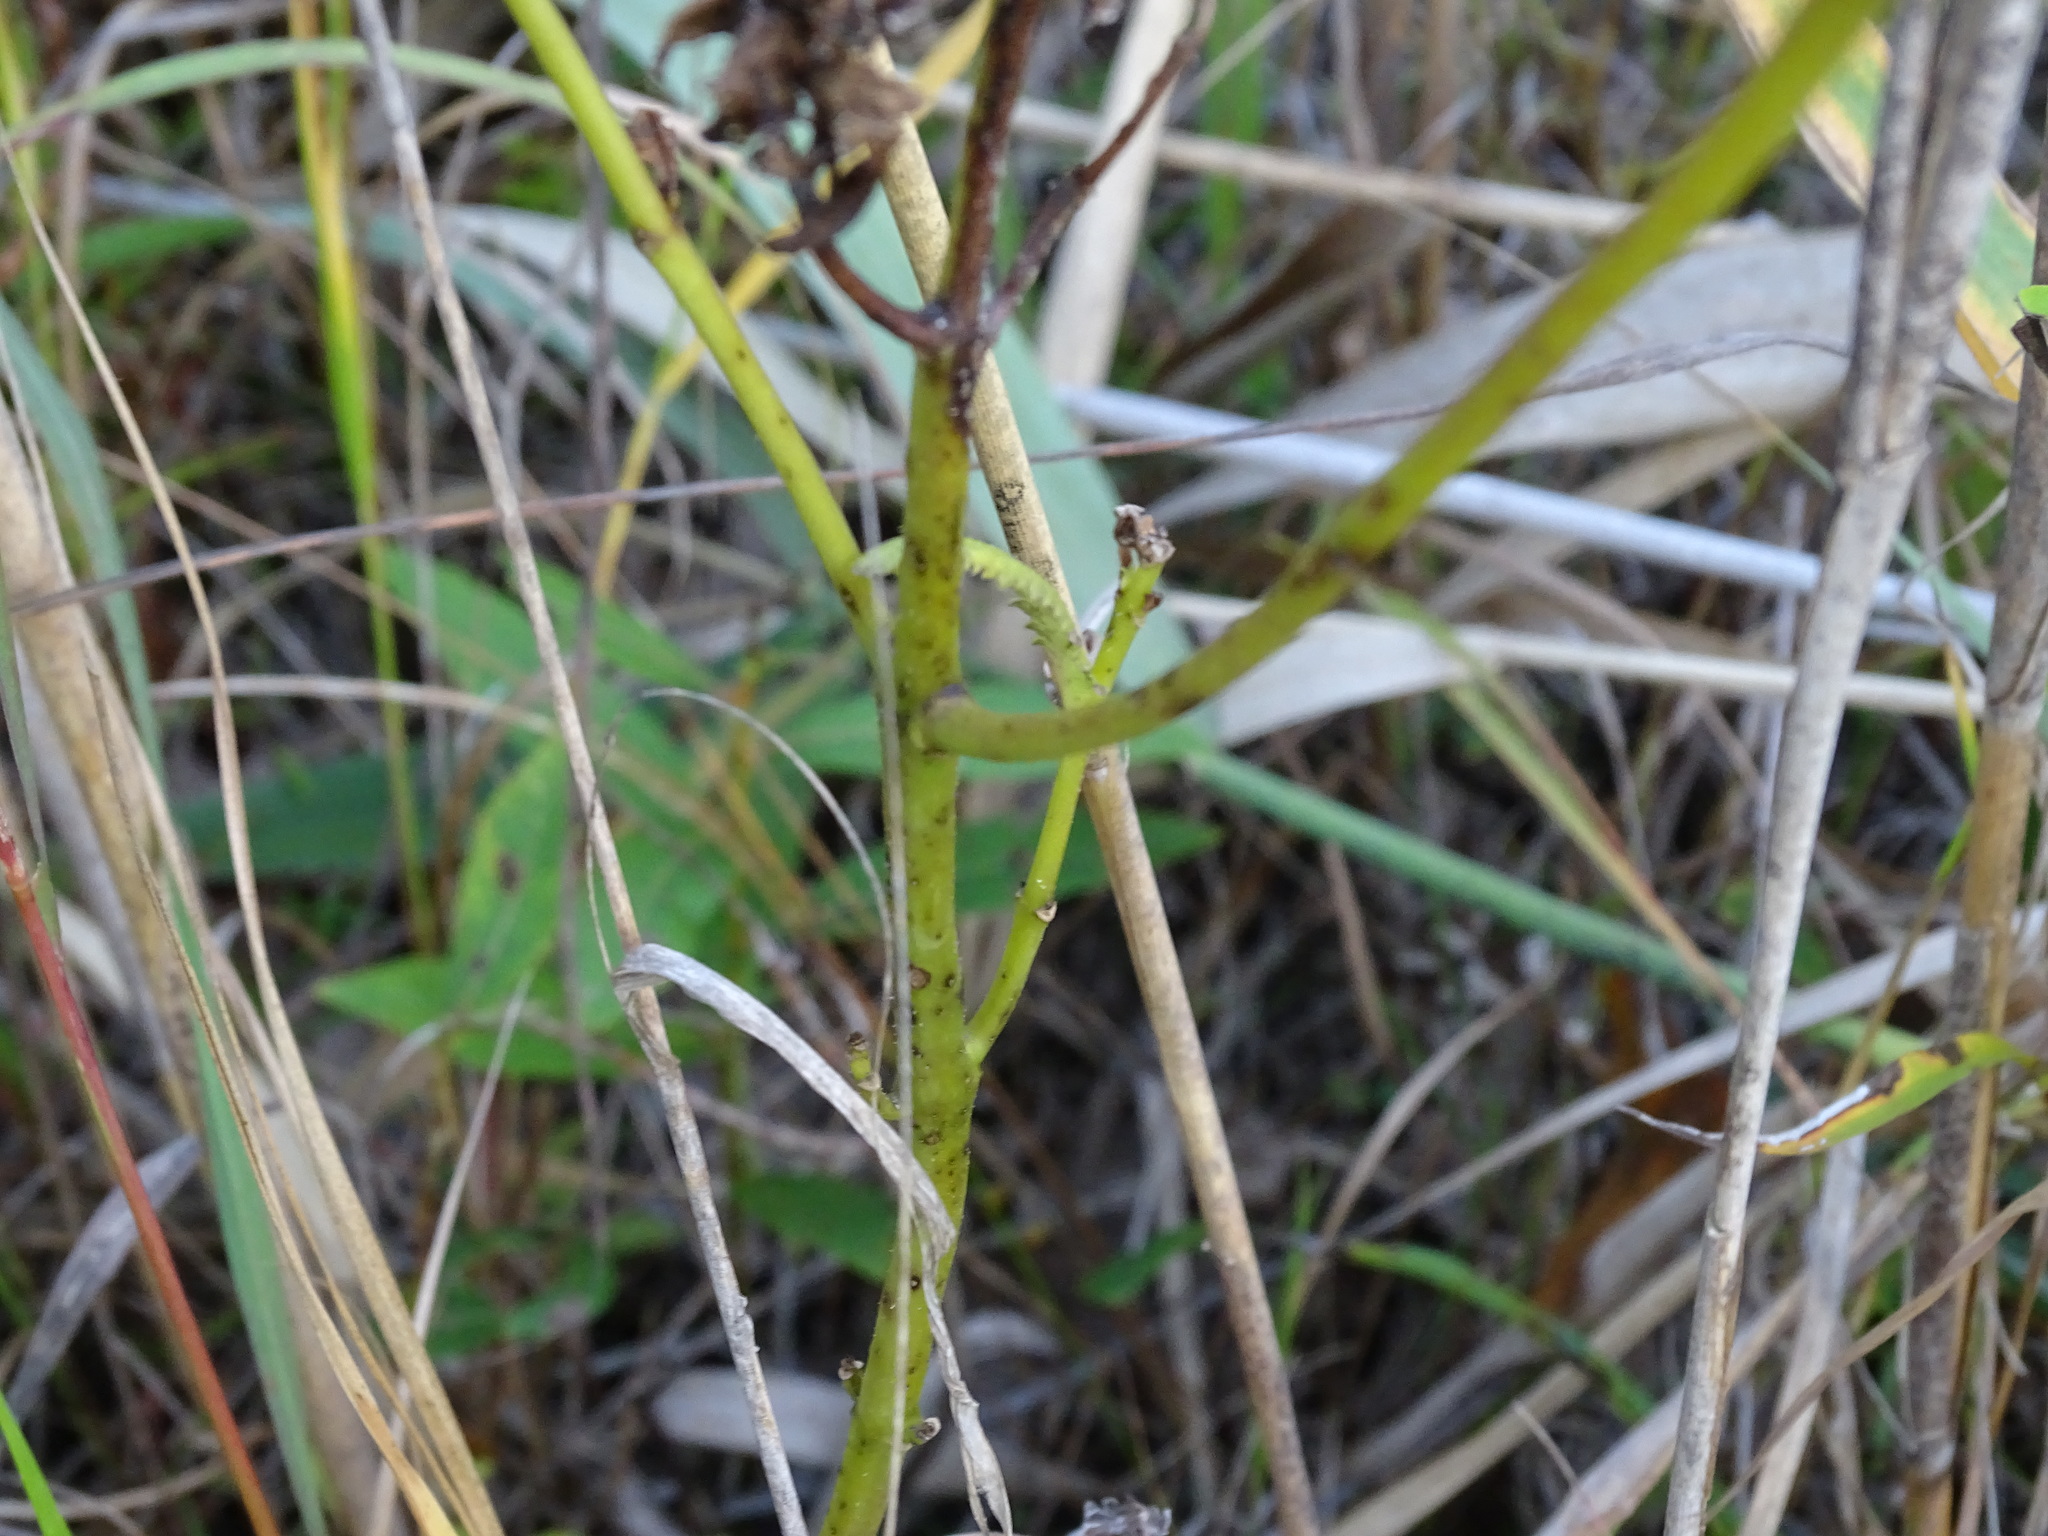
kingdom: Plantae
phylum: Tracheophyta
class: Magnoliopsida
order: Lamiales
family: Orobanchaceae
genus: Pedicularis
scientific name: Pedicularis lanceolata
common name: Swamp lousewort
